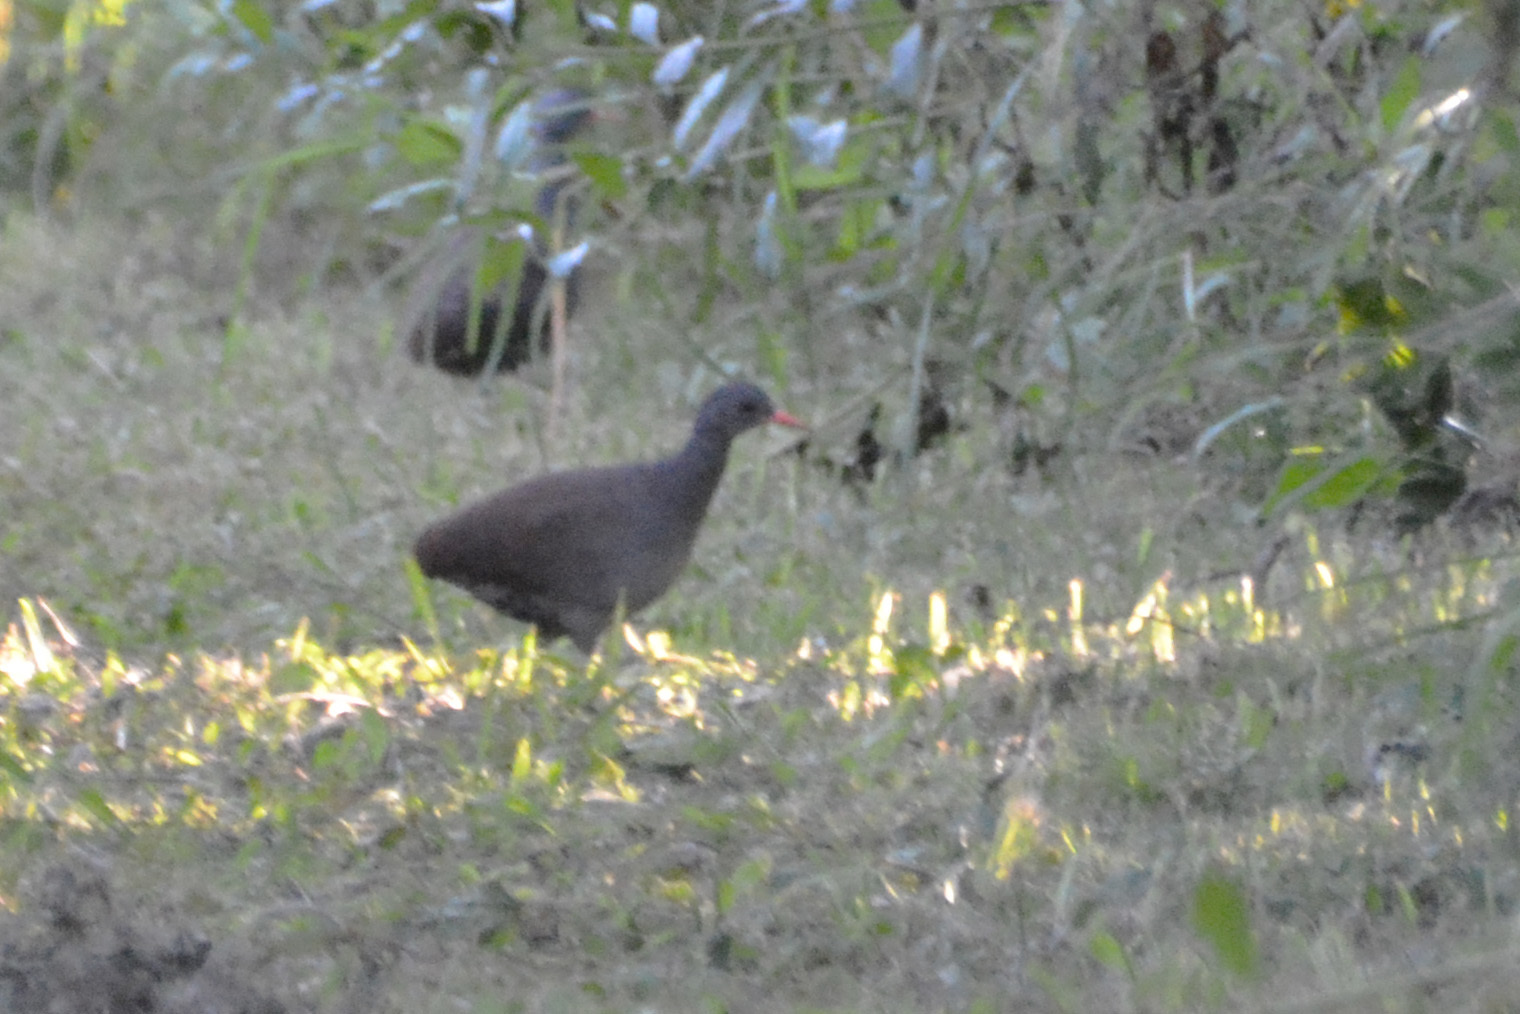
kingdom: Animalia
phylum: Chordata
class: Aves
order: Tinamiformes
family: Tinamidae
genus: Crypturellus
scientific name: Crypturellus tataupa
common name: Tataupa tinamou
